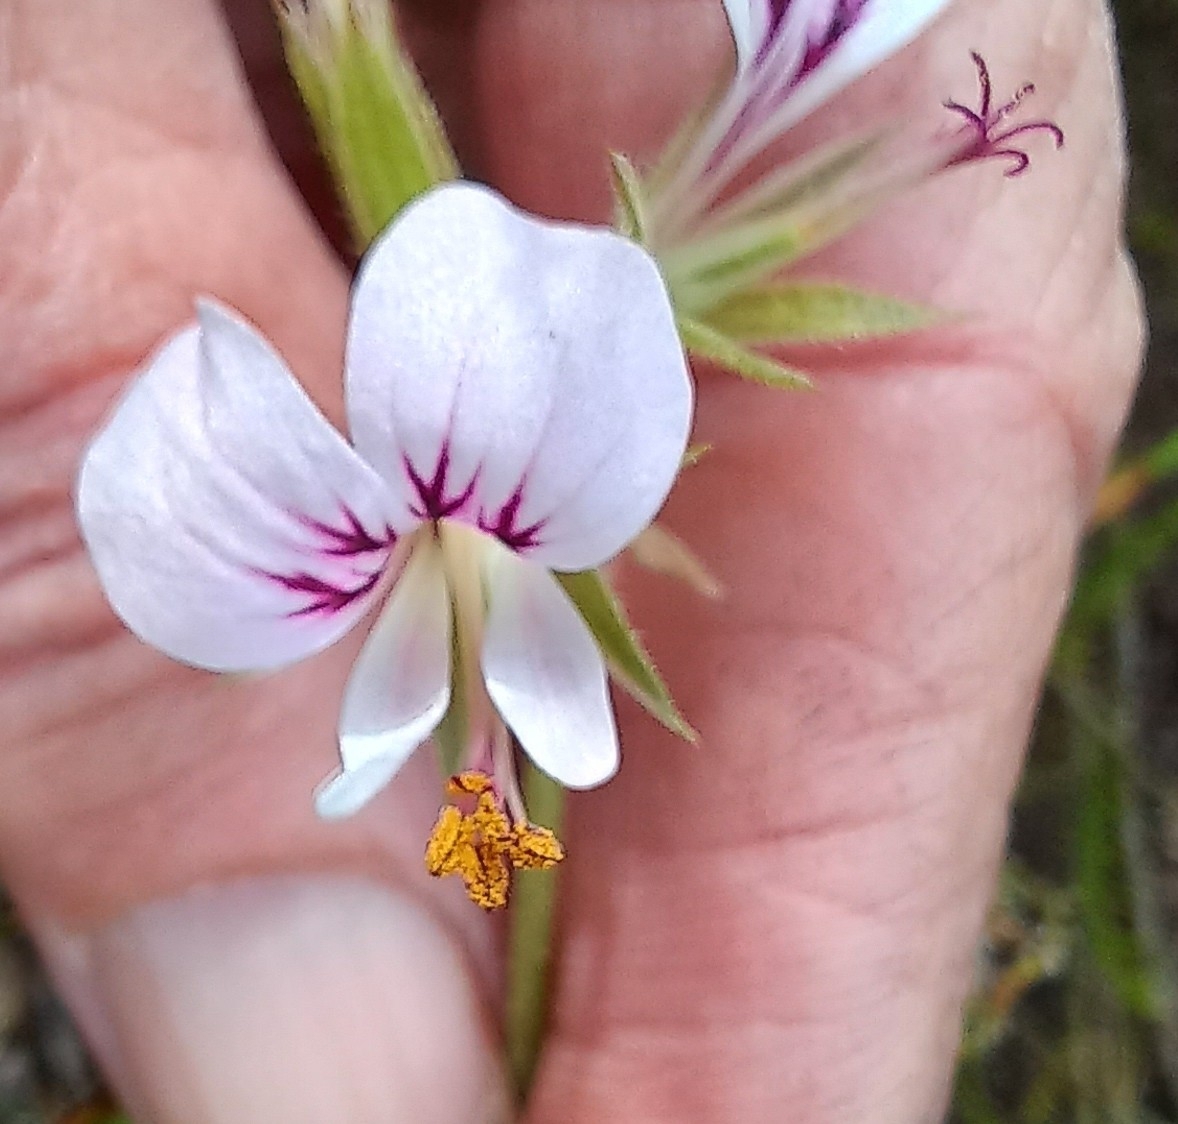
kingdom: Plantae
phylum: Tracheophyta
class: Magnoliopsida
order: Geraniales
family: Geraniaceae
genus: Pelargonium
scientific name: Pelargonium myrrhifolium
